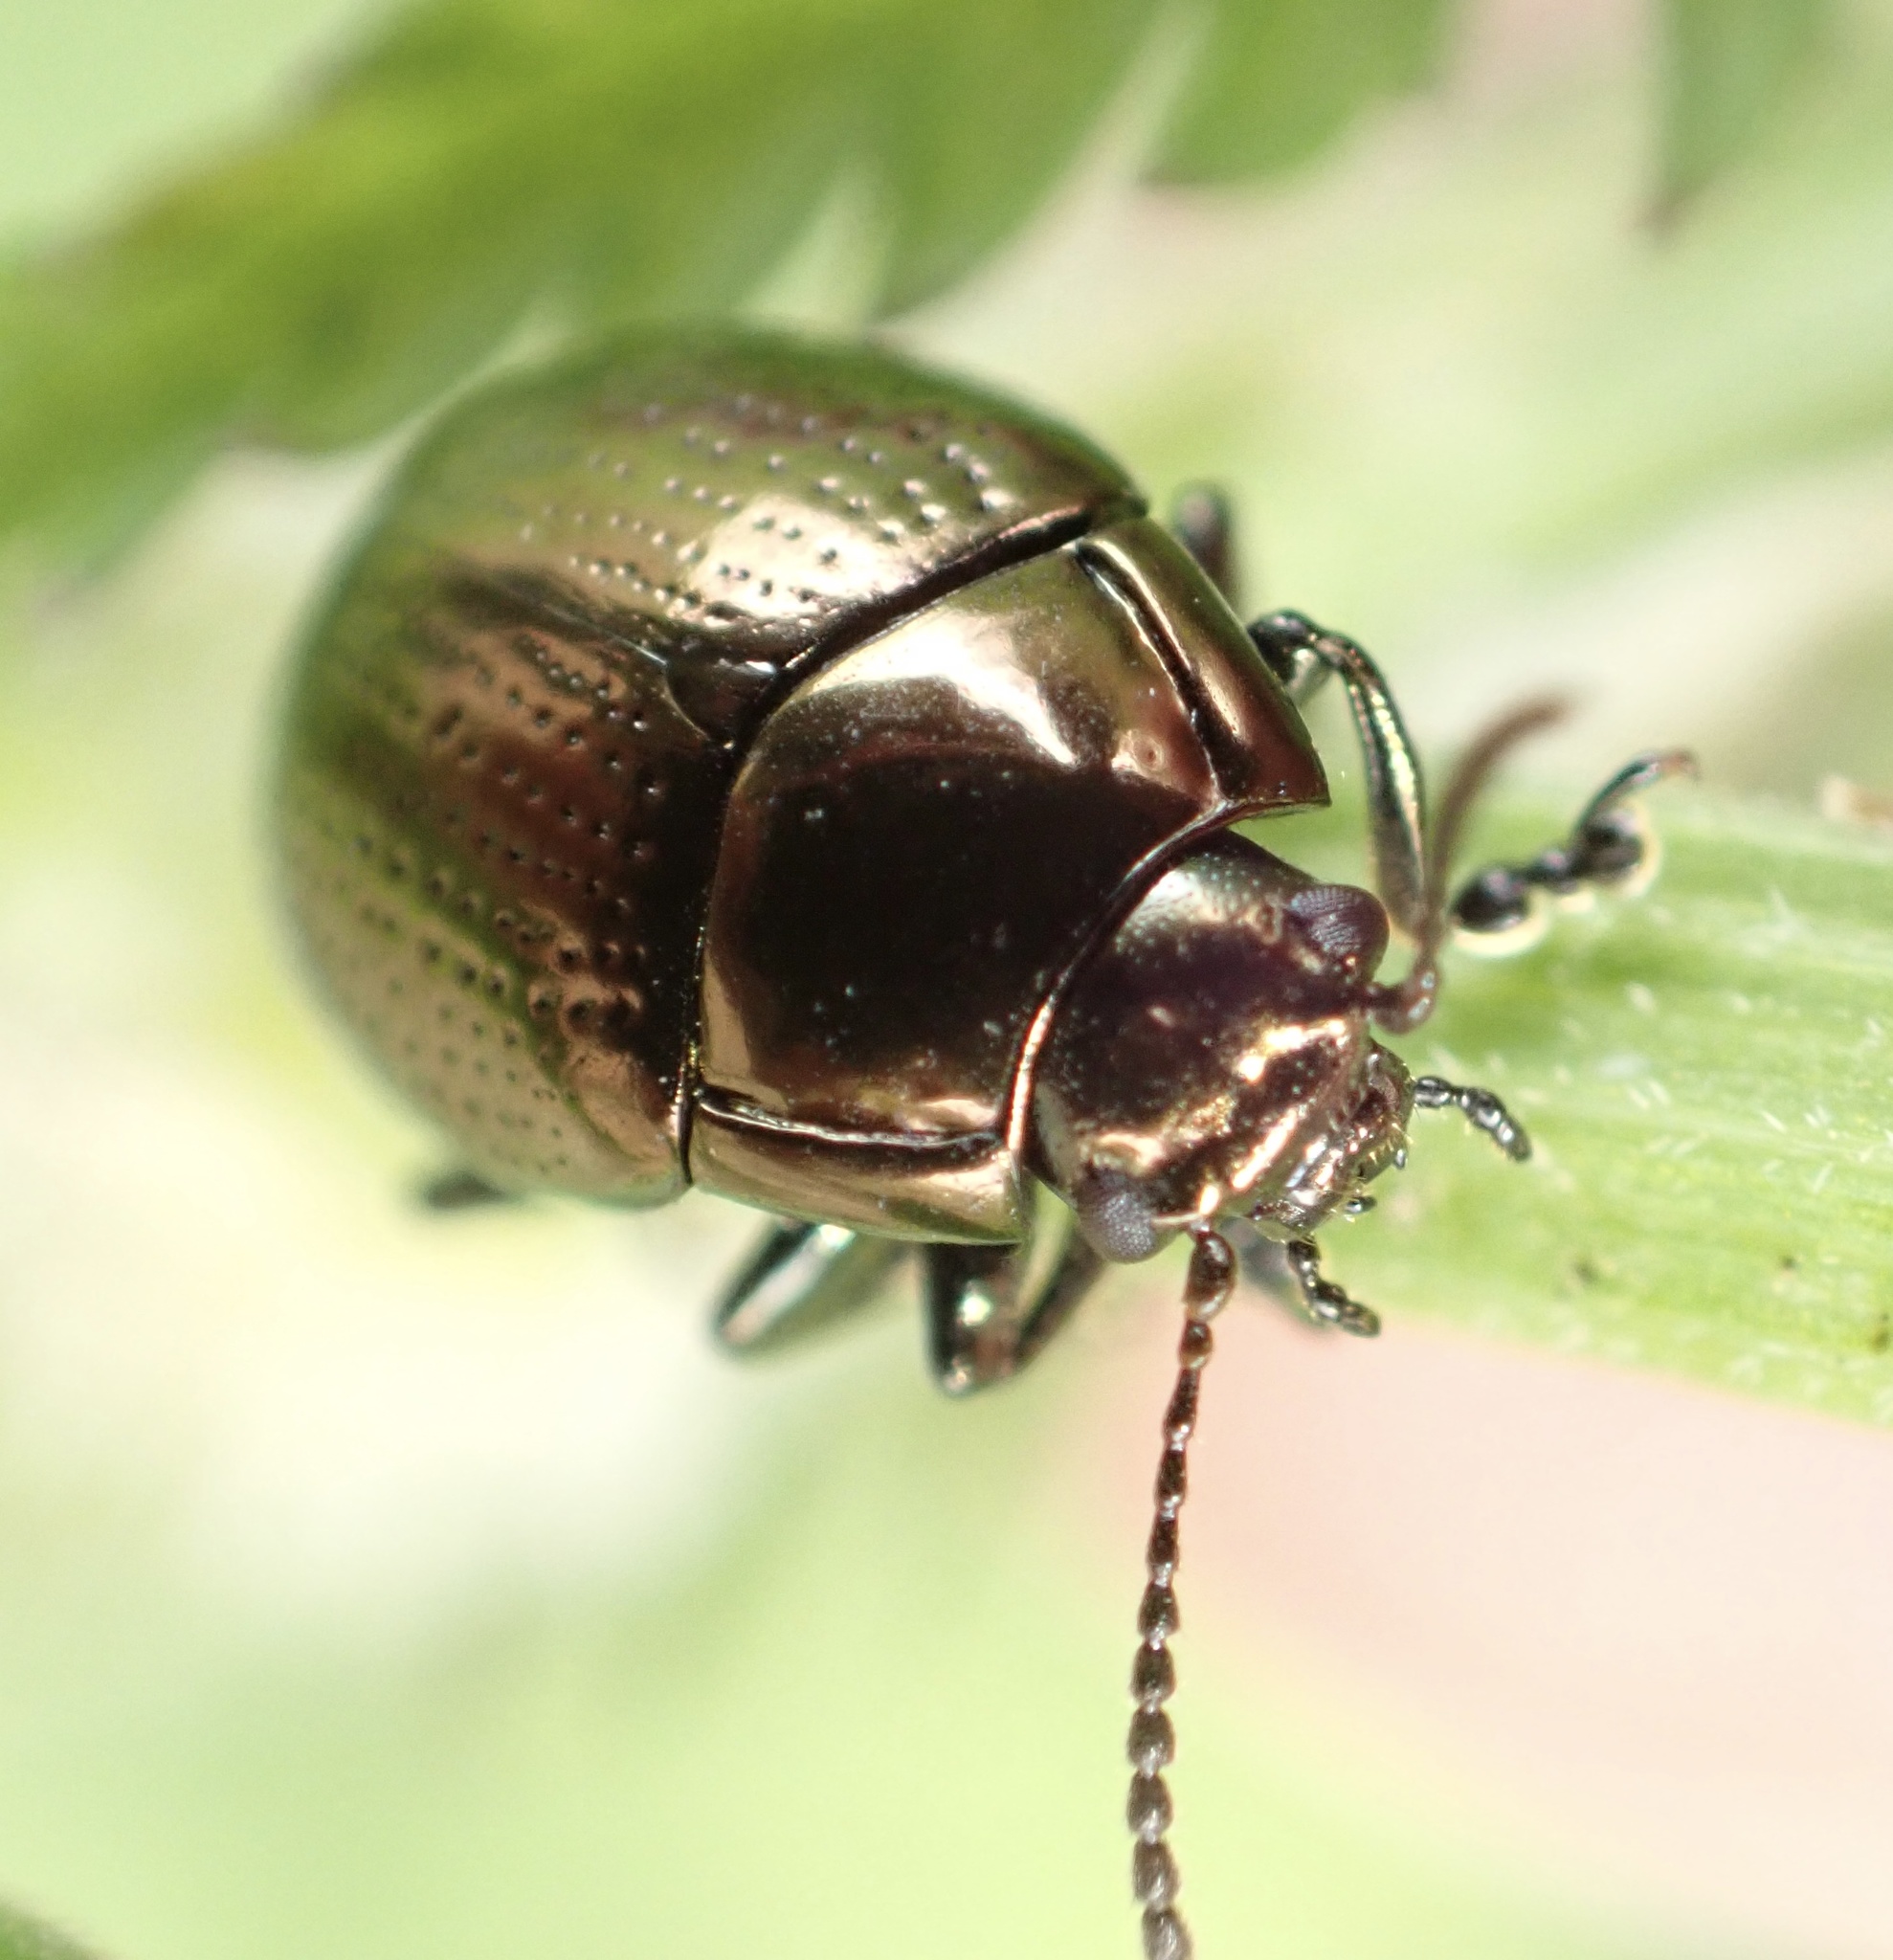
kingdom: Animalia
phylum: Arthropoda
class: Insecta
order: Coleoptera
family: Chrysomelidae
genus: Chrysolina
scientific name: Chrysolina oricalcia
